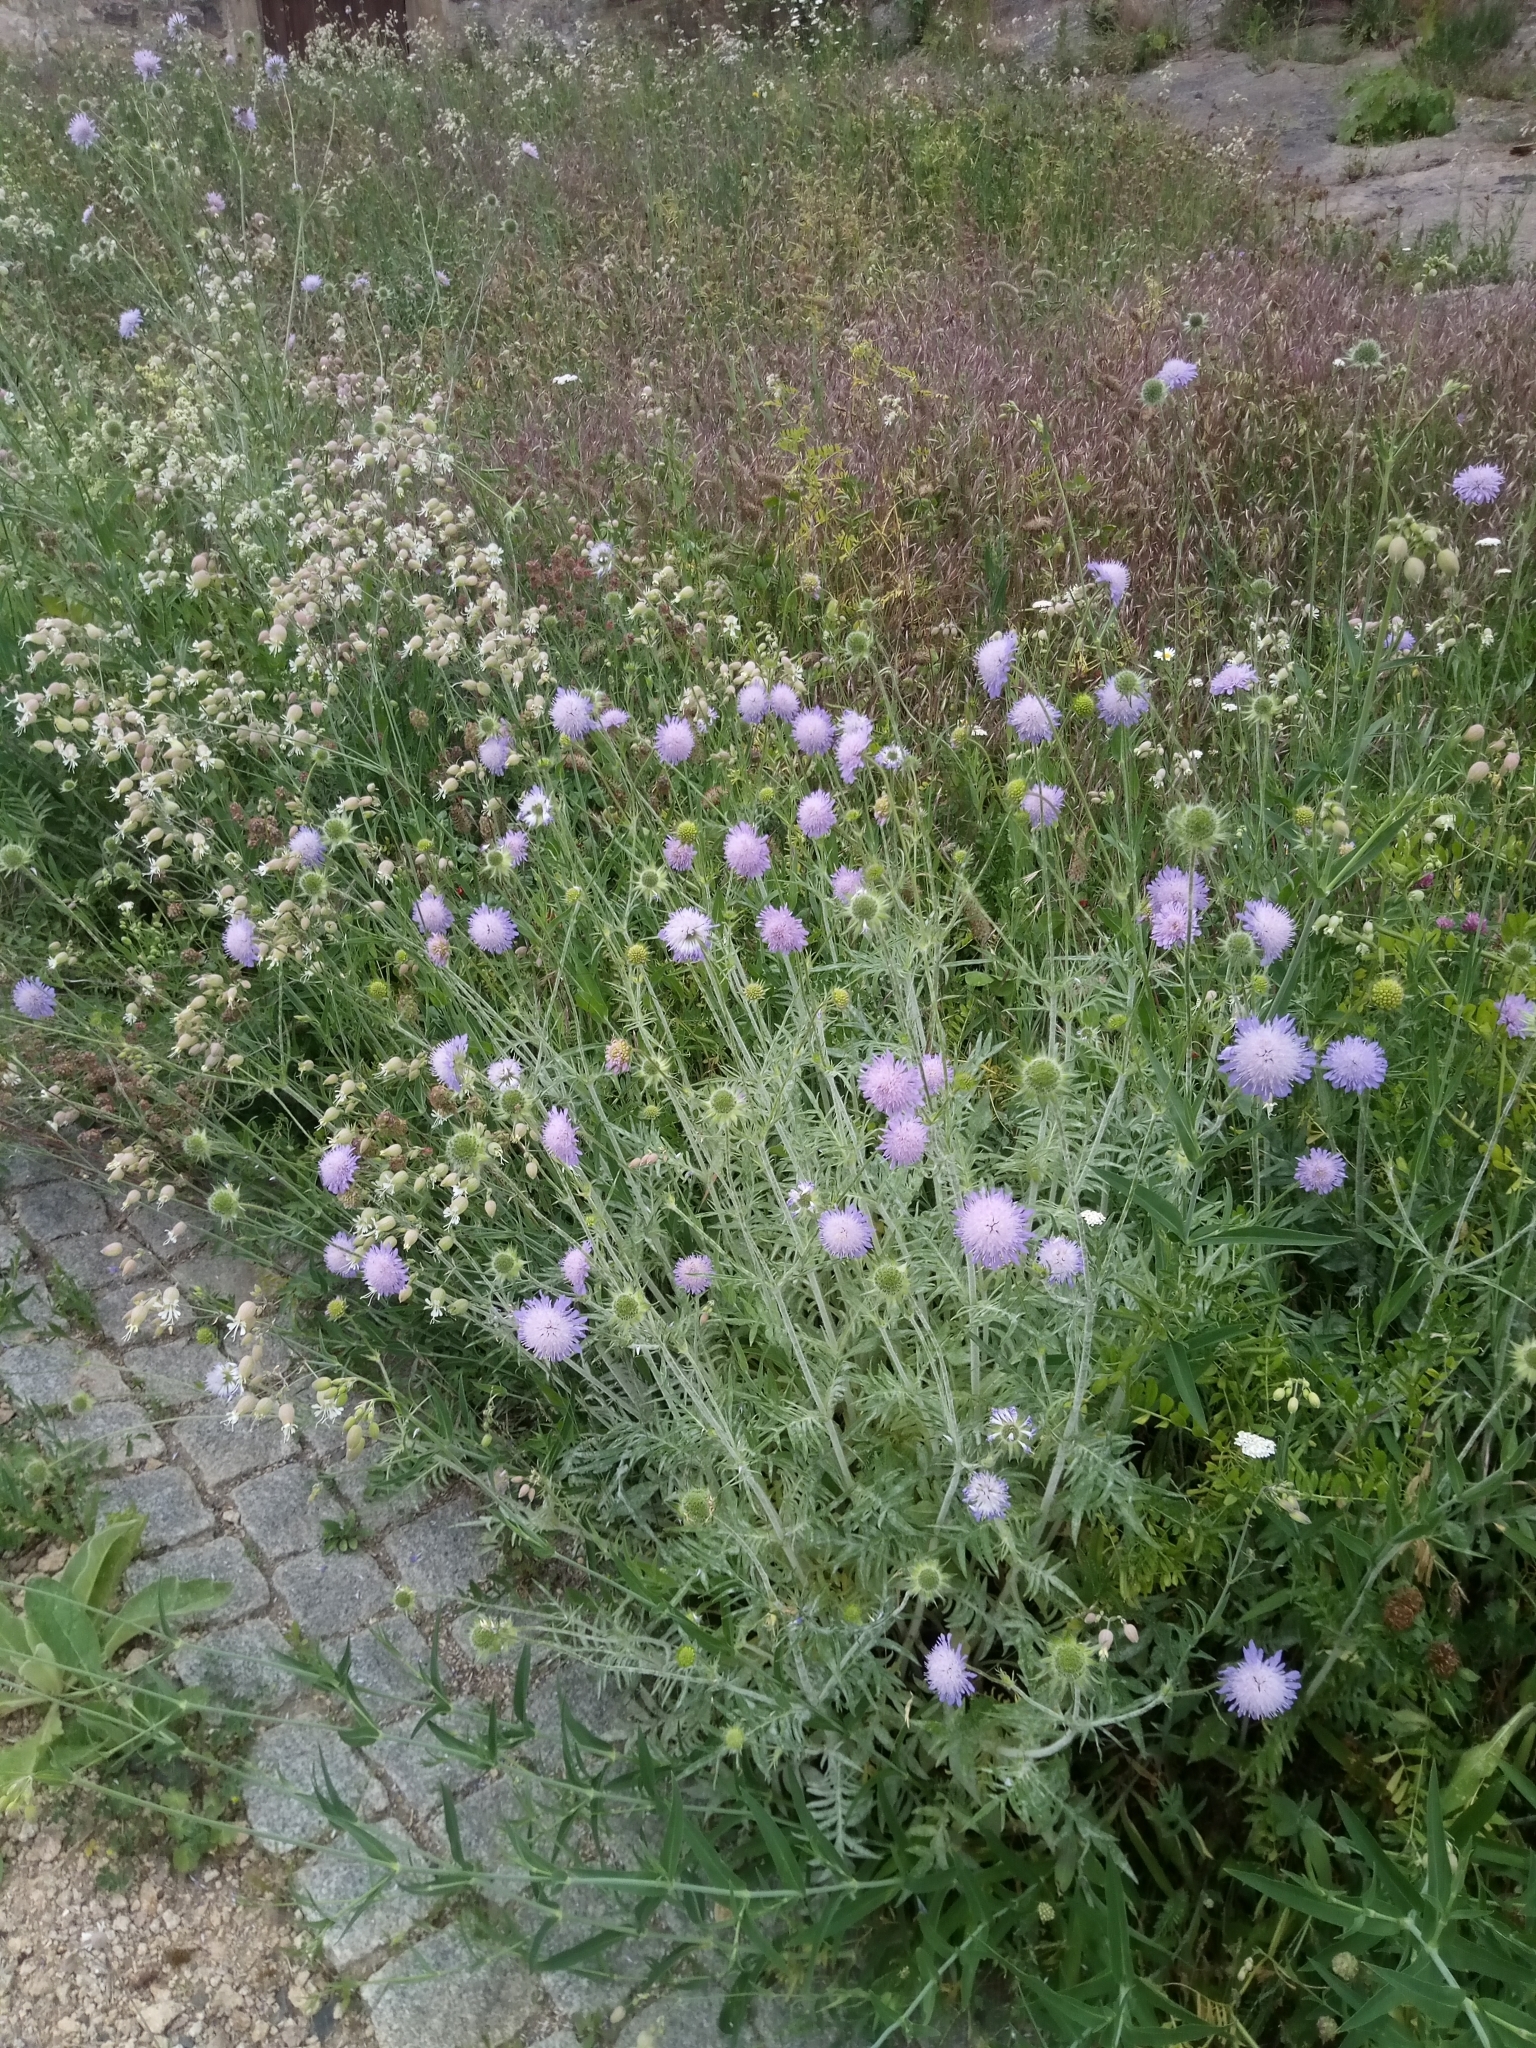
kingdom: Plantae
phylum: Tracheophyta
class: Magnoliopsida
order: Dipsacales
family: Caprifoliaceae
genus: Knautia
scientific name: Knautia arvensis
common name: Field scabiosa
